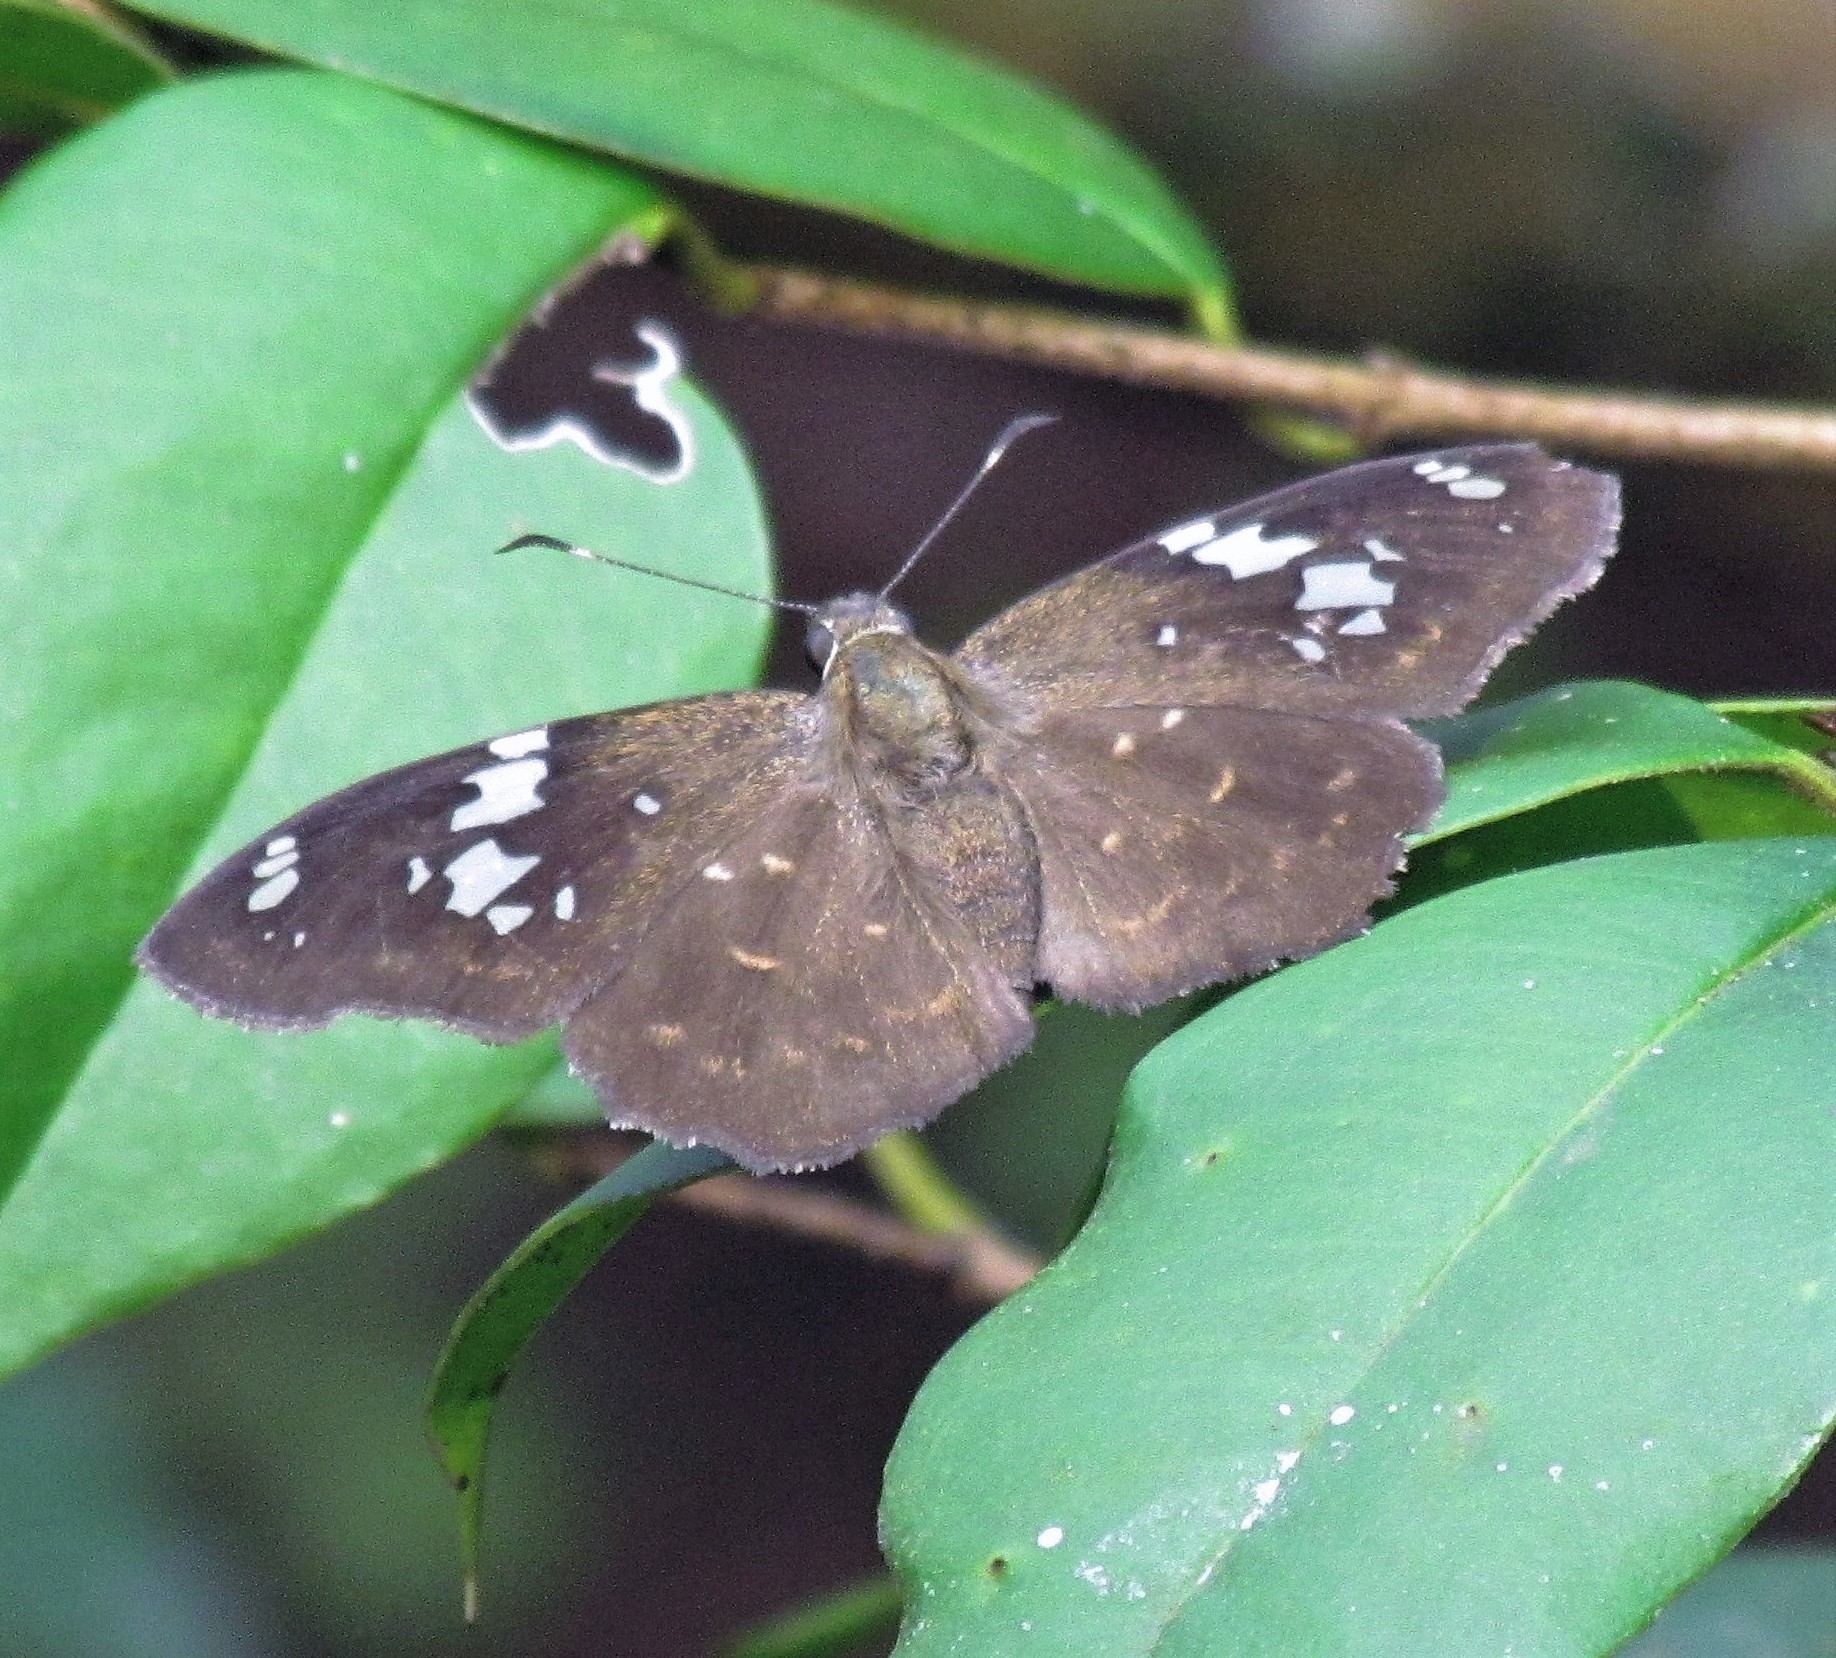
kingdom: Animalia
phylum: Arthropoda
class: Insecta
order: Lepidoptera
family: Hesperiidae
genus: Celaenorrhinus
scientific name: Celaenorrhinus similis
